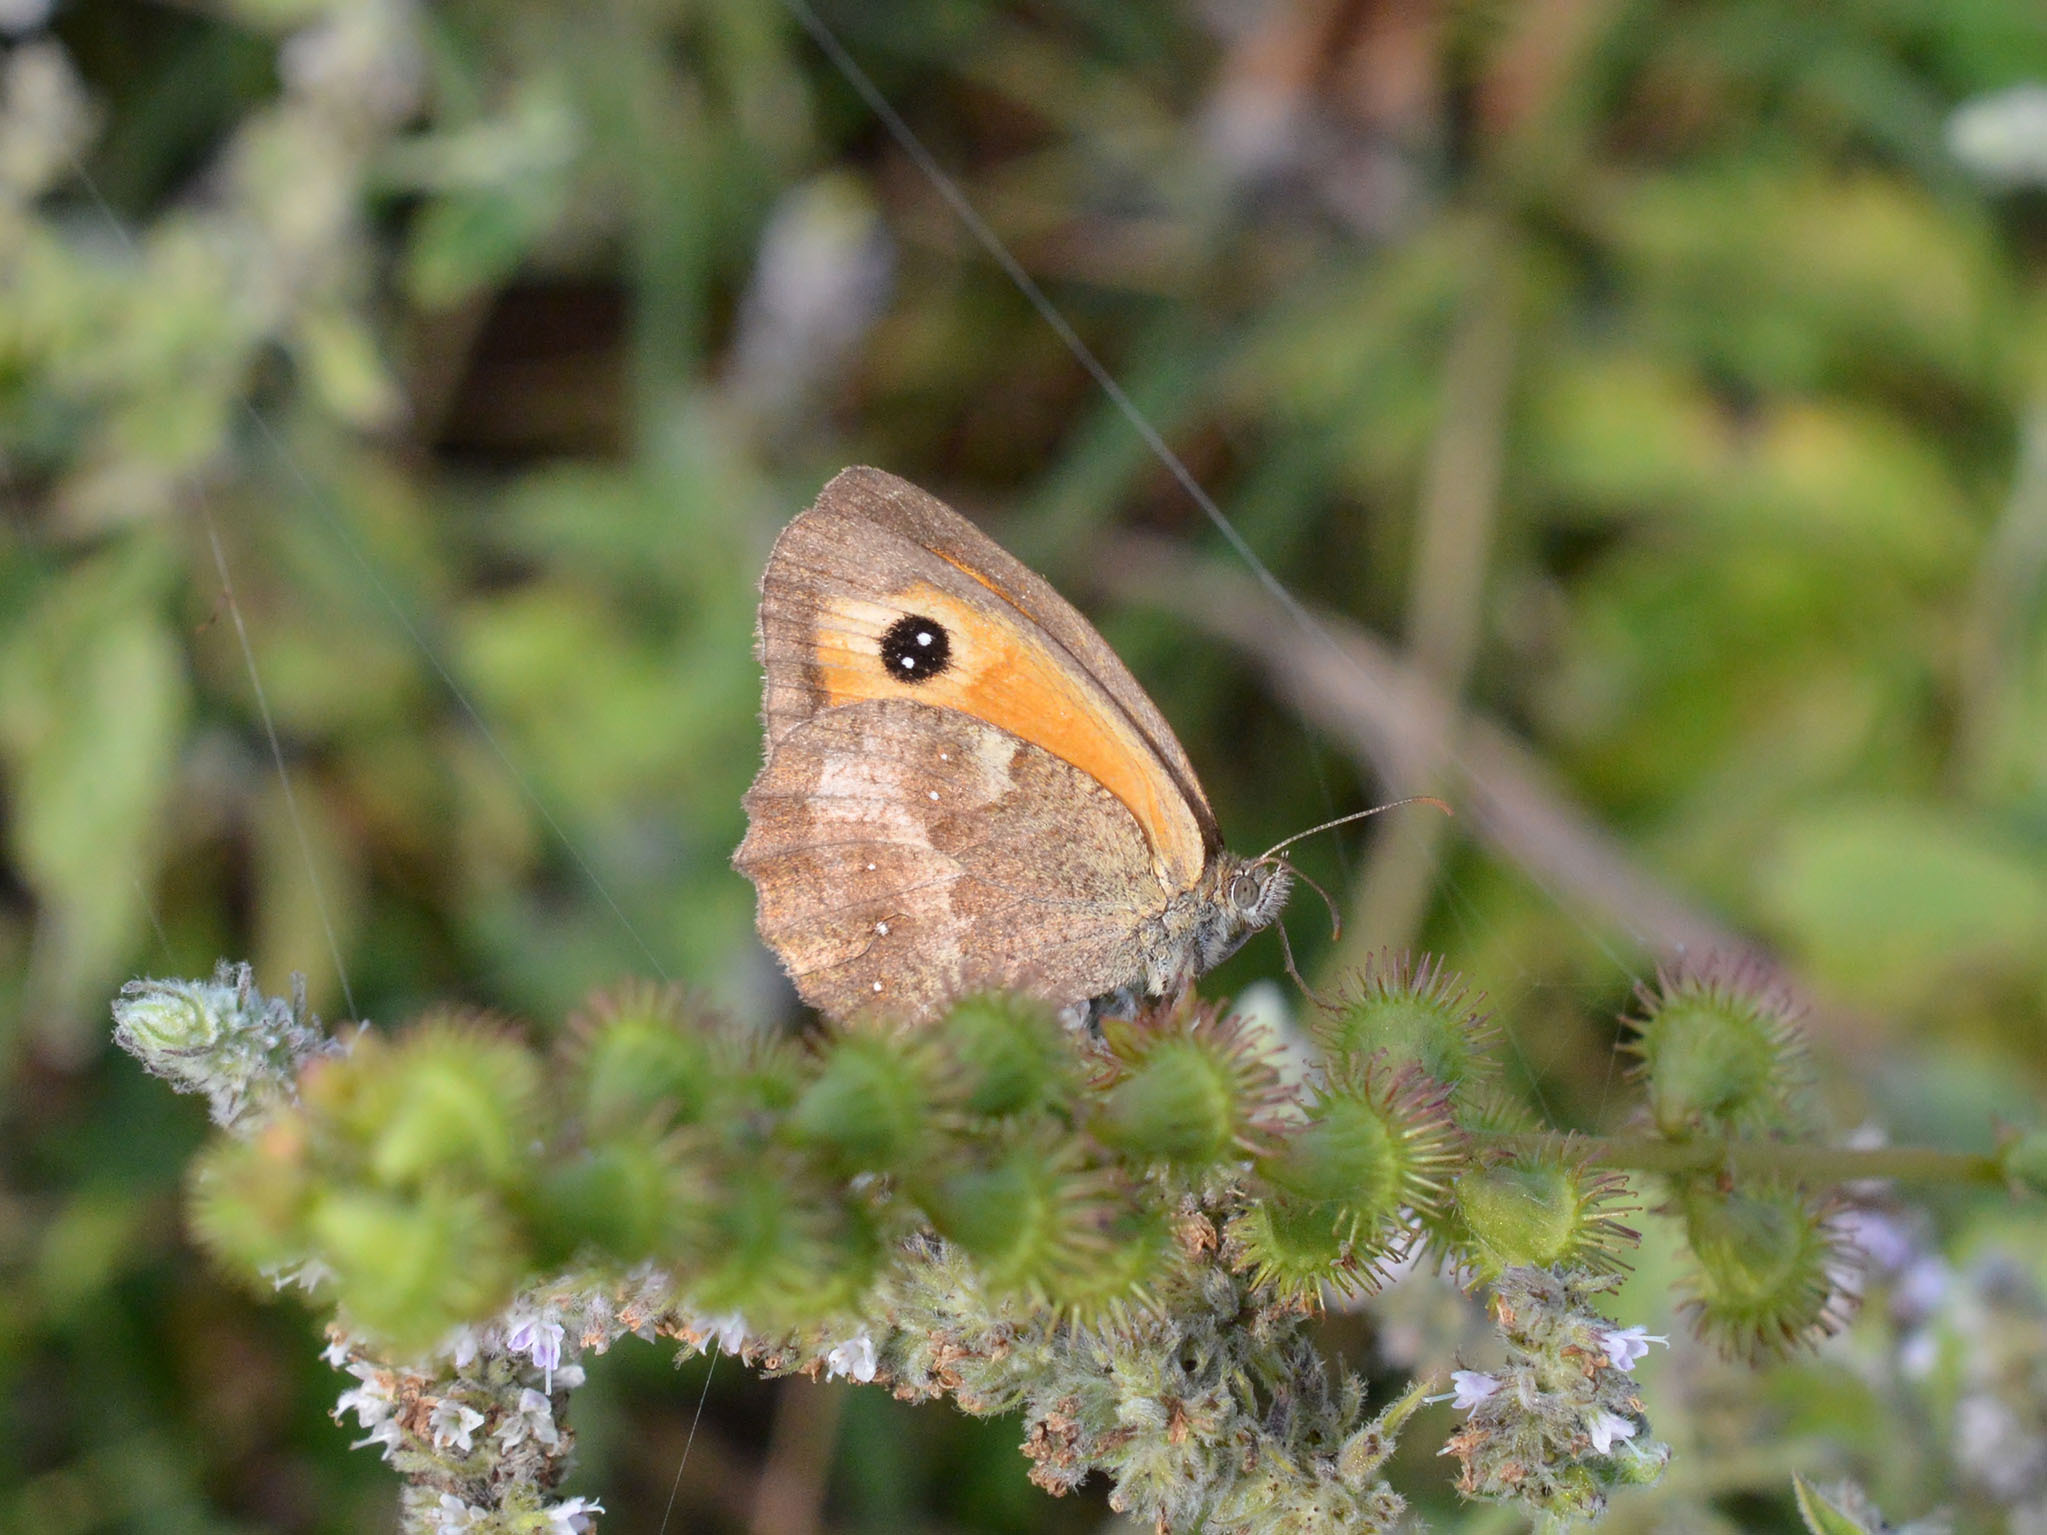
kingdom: Animalia
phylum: Arthropoda
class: Insecta
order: Lepidoptera
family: Nymphalidae
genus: Pyronia
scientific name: Pyronia tithonus
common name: Gatekeeper
